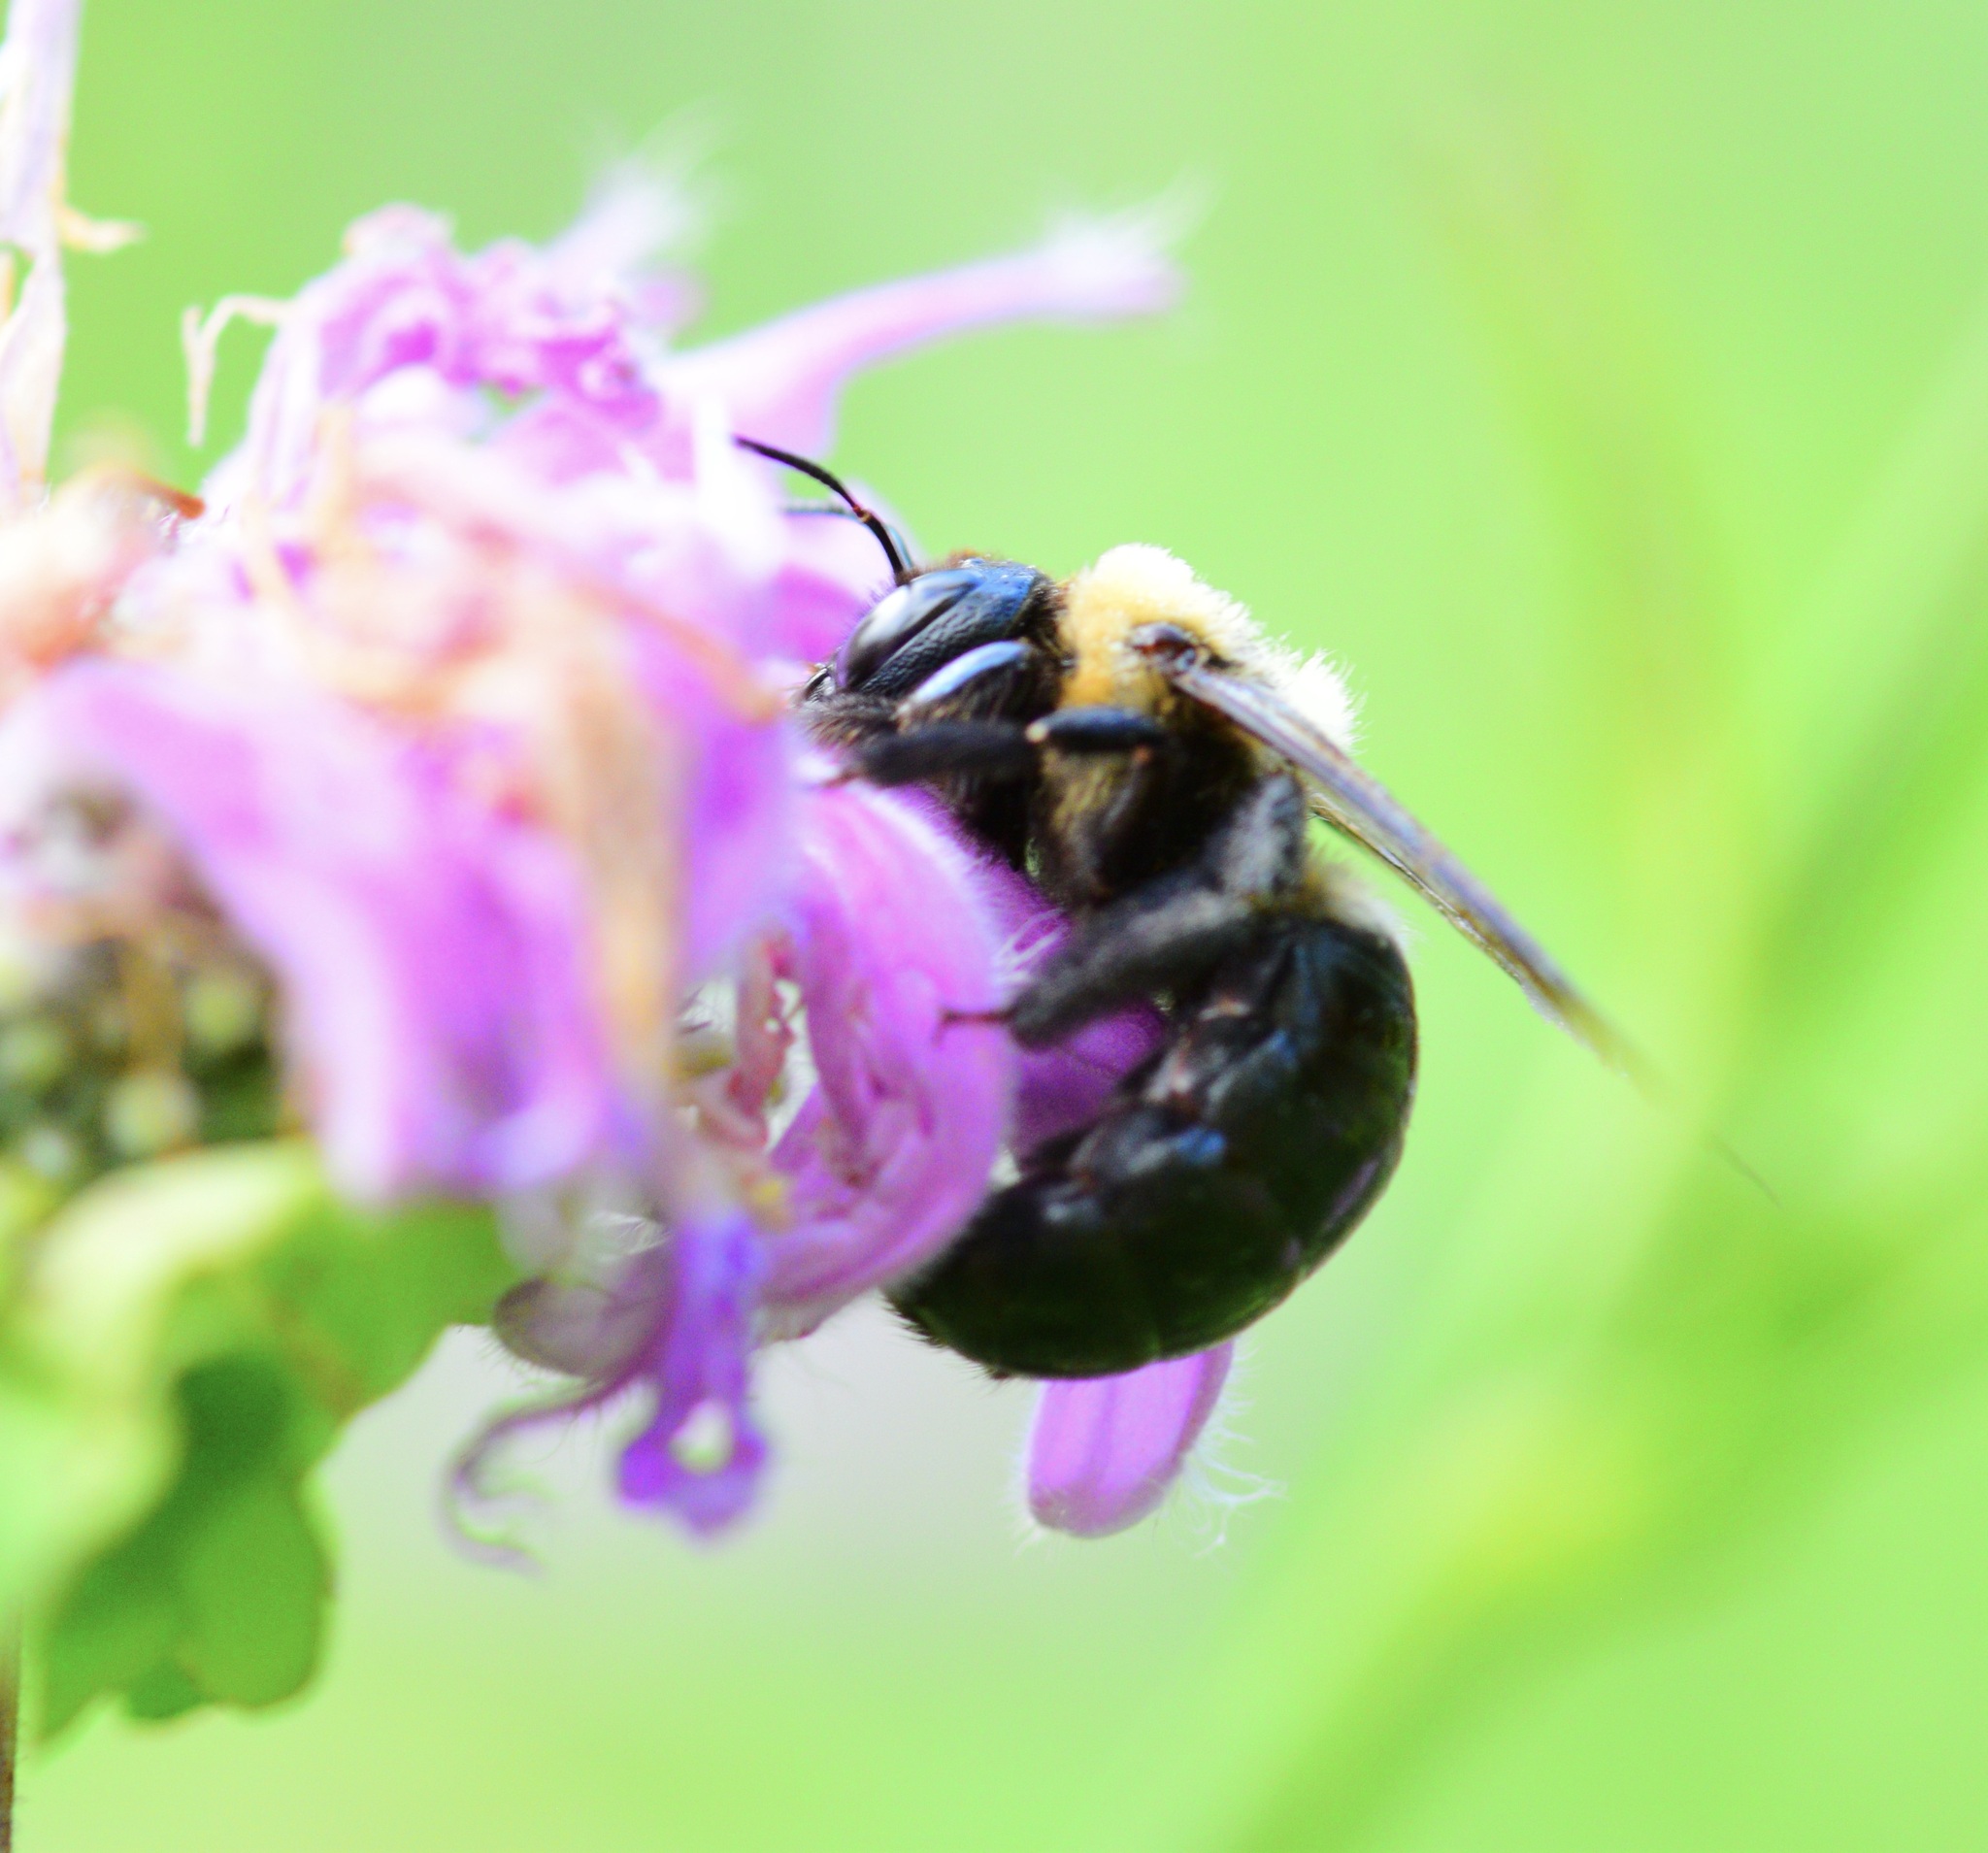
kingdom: Animalia
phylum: Arthropoda
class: Insecta
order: Hymenoptera
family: Apidae
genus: Xylocopa
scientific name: Xylocopa virginica
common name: Carpenter bee
